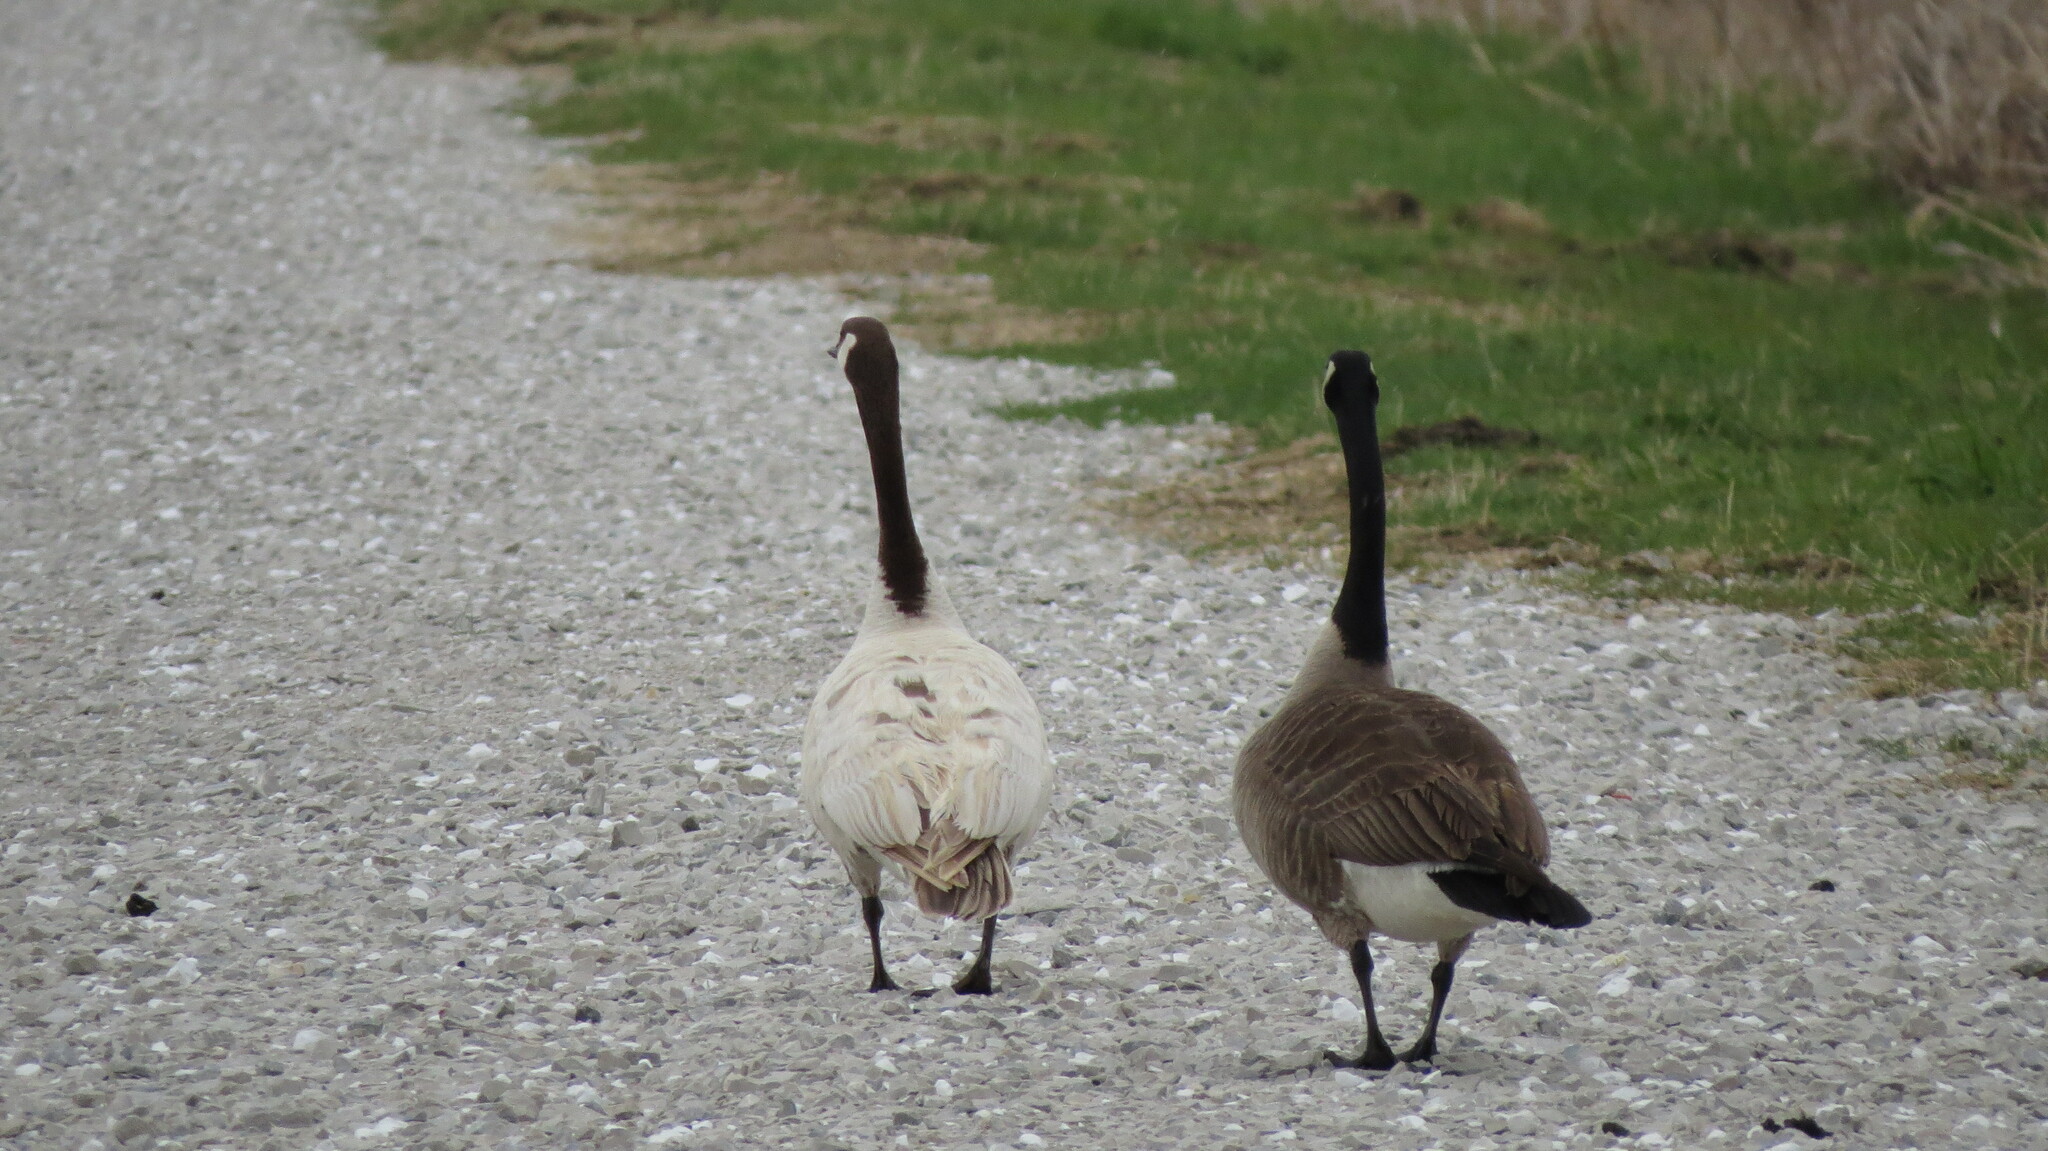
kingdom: Animalia
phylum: Chordata
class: Aves
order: Anseriformes
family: Anatidae
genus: Branta
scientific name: Branta canadensis
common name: Canada goose
